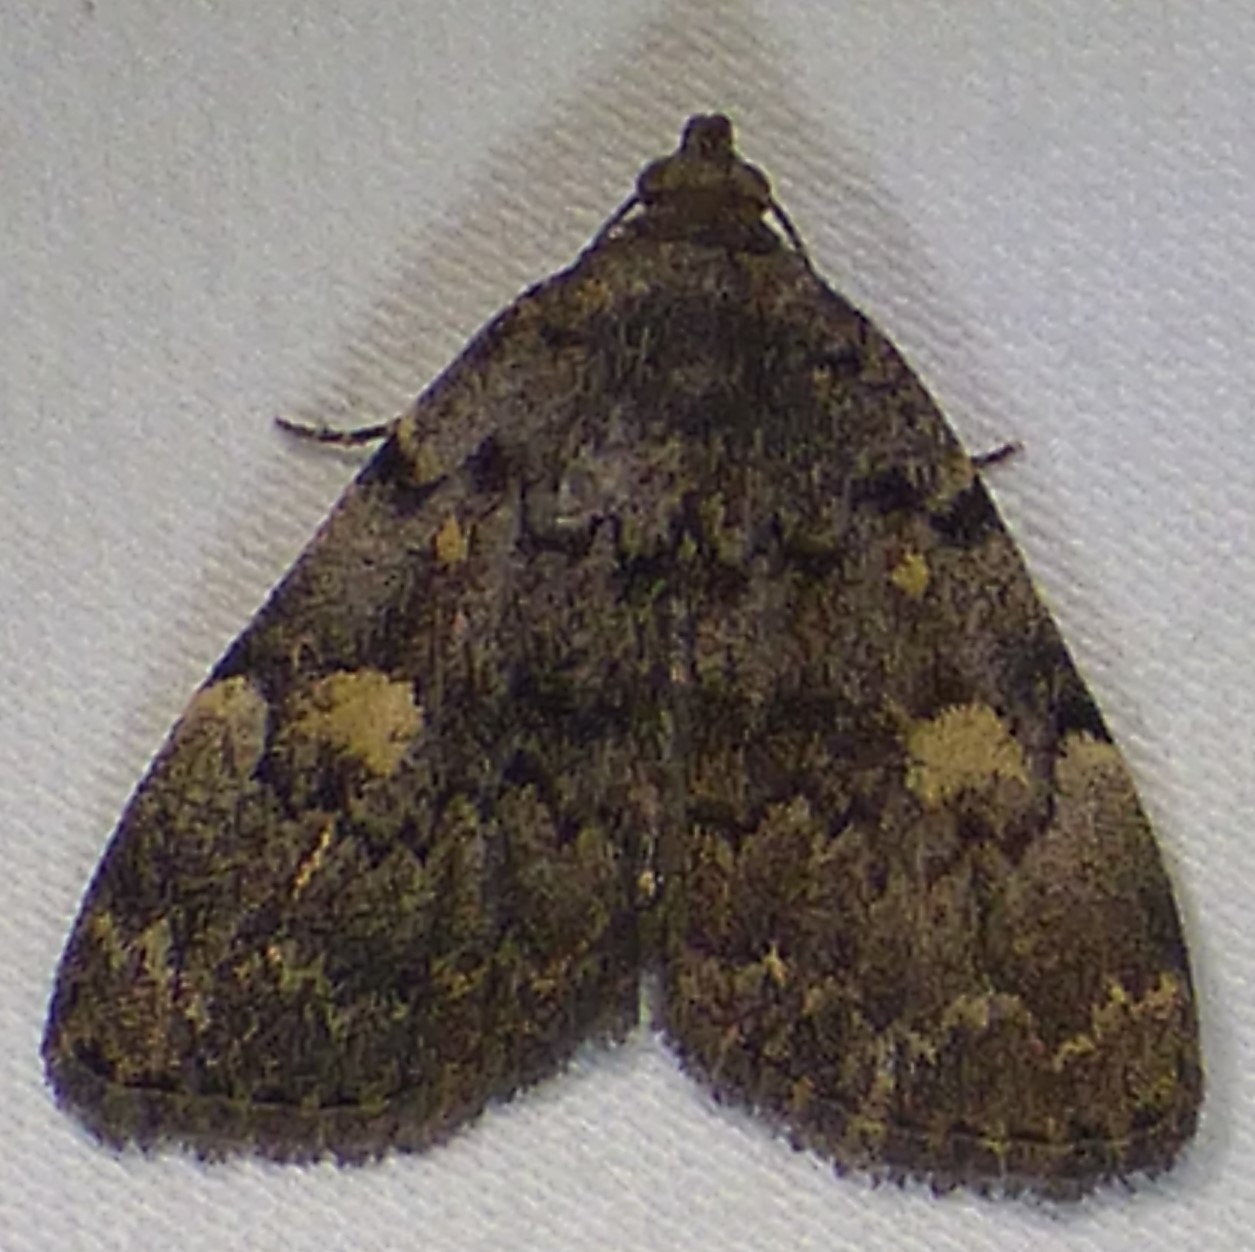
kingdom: Animalia
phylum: Arthropoda
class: Insecta
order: Lepidoptera
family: Erebidae
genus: Idia
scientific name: Idia aemula
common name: Common idia moth
